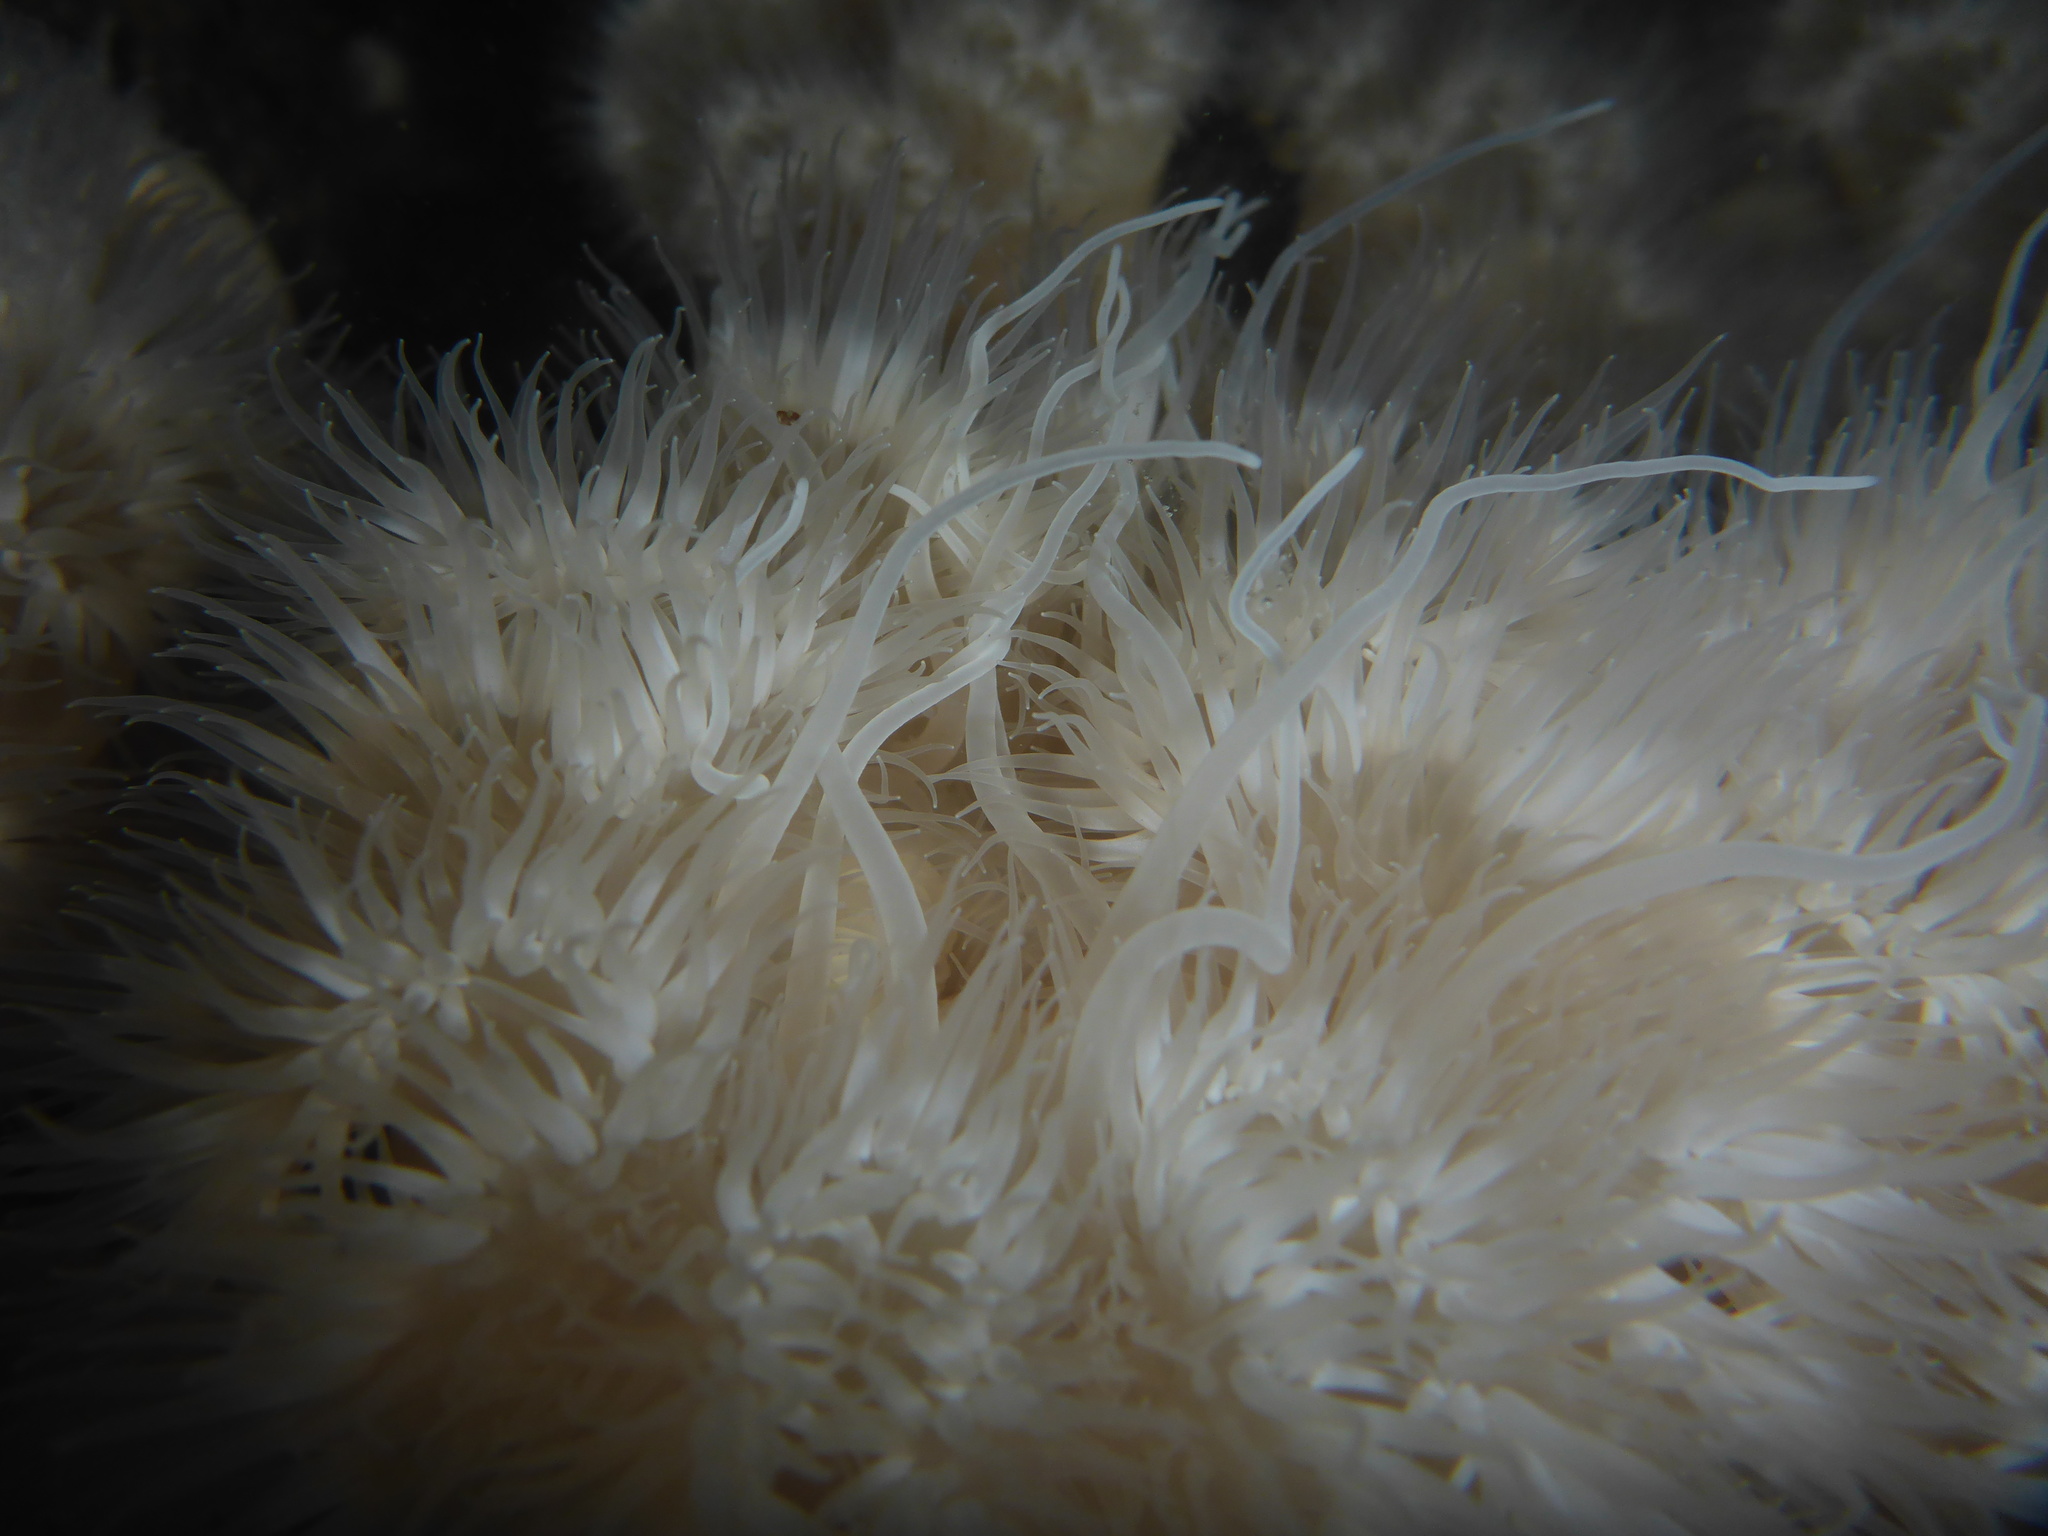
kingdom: Animalia
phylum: Cnidaria
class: Anthozoa
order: Actiniaria
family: Metridiidae
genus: Metridium
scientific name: Metridium senile
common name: Clonal plumose anemone
